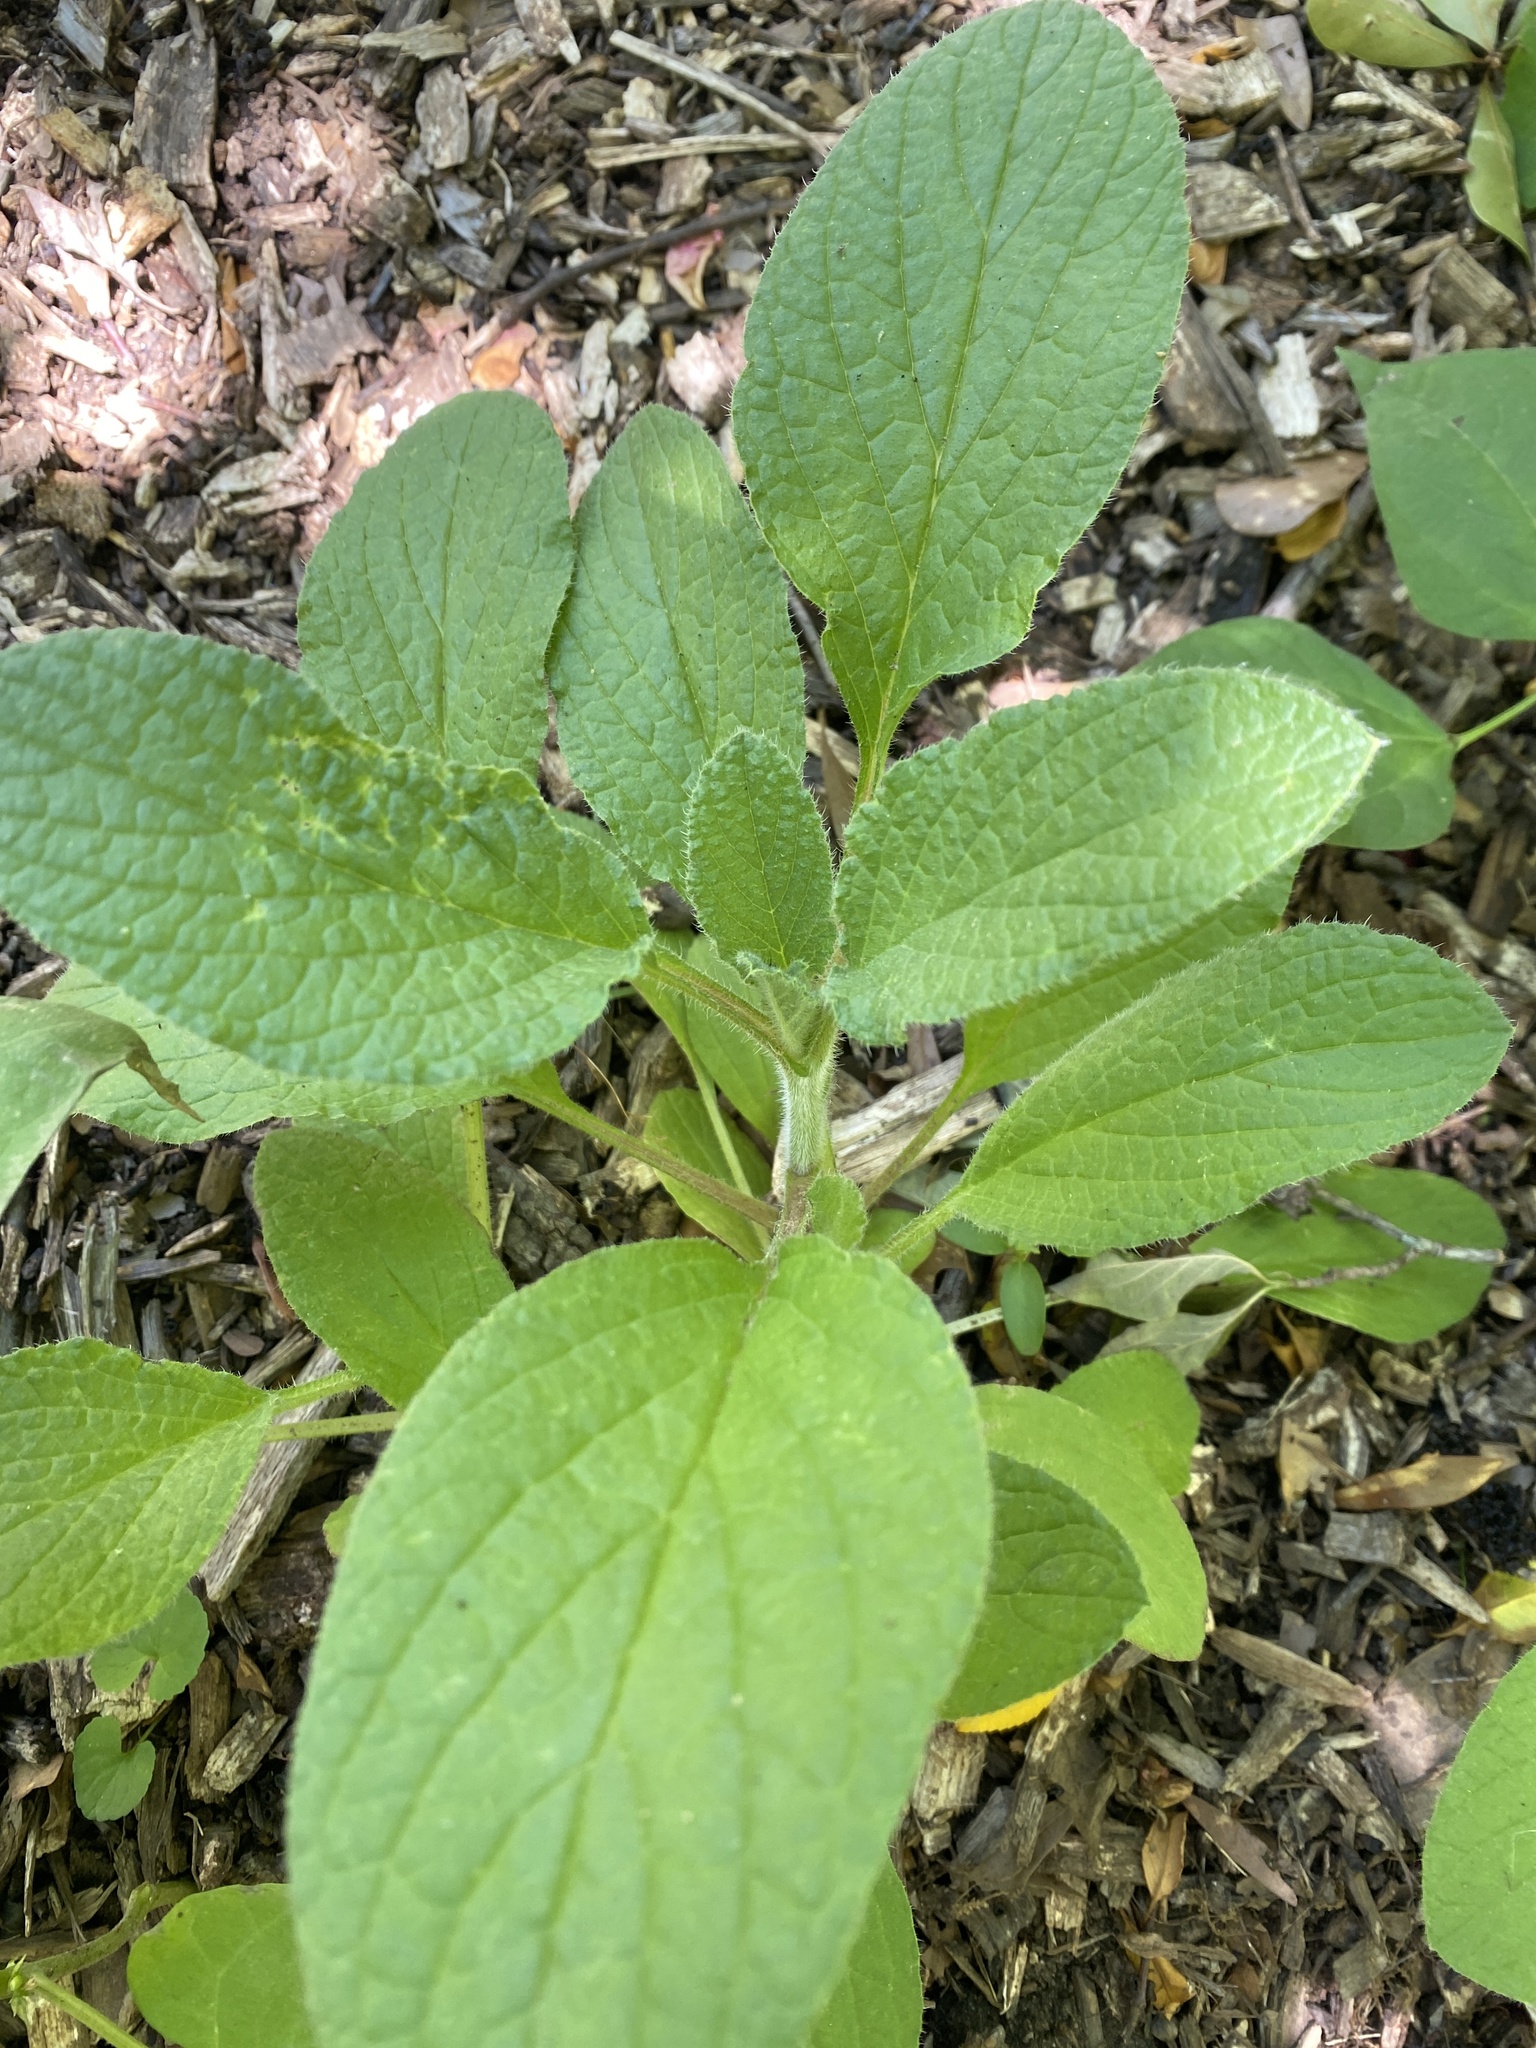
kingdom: Plantae
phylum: Tracheophyta
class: Magnoliopsida
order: Boraginales
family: Boraginaceae
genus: Borago
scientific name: Borago officinalis
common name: Borage
